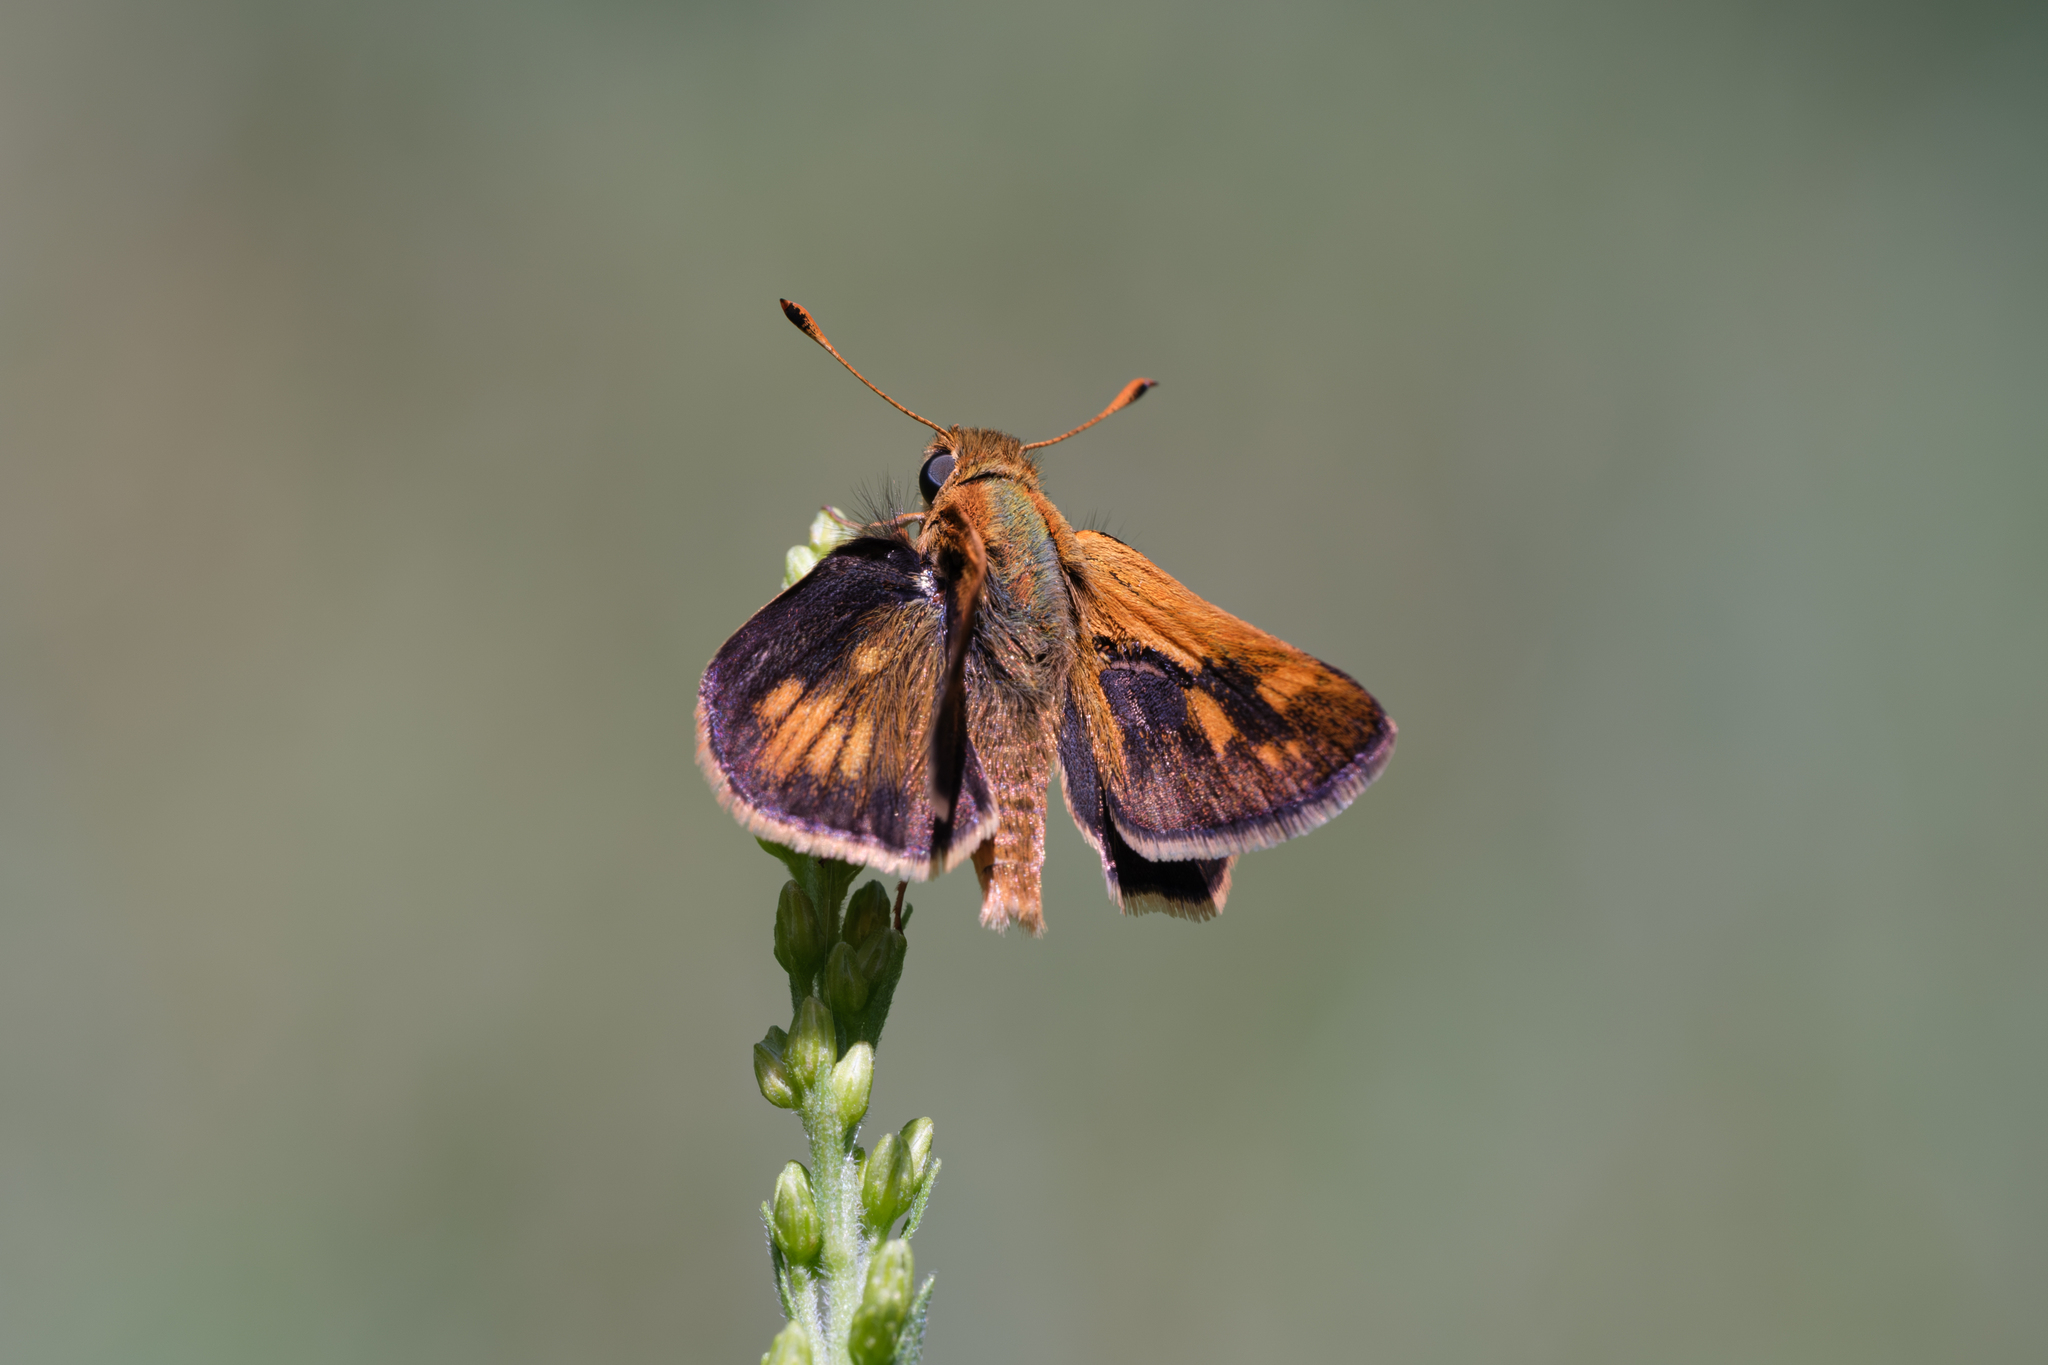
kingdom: Animalia
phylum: Arthropoda
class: Insecta
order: Lepidoptera
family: Hesperiidae
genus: Polites
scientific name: Polites coras
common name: Peck's skipper
